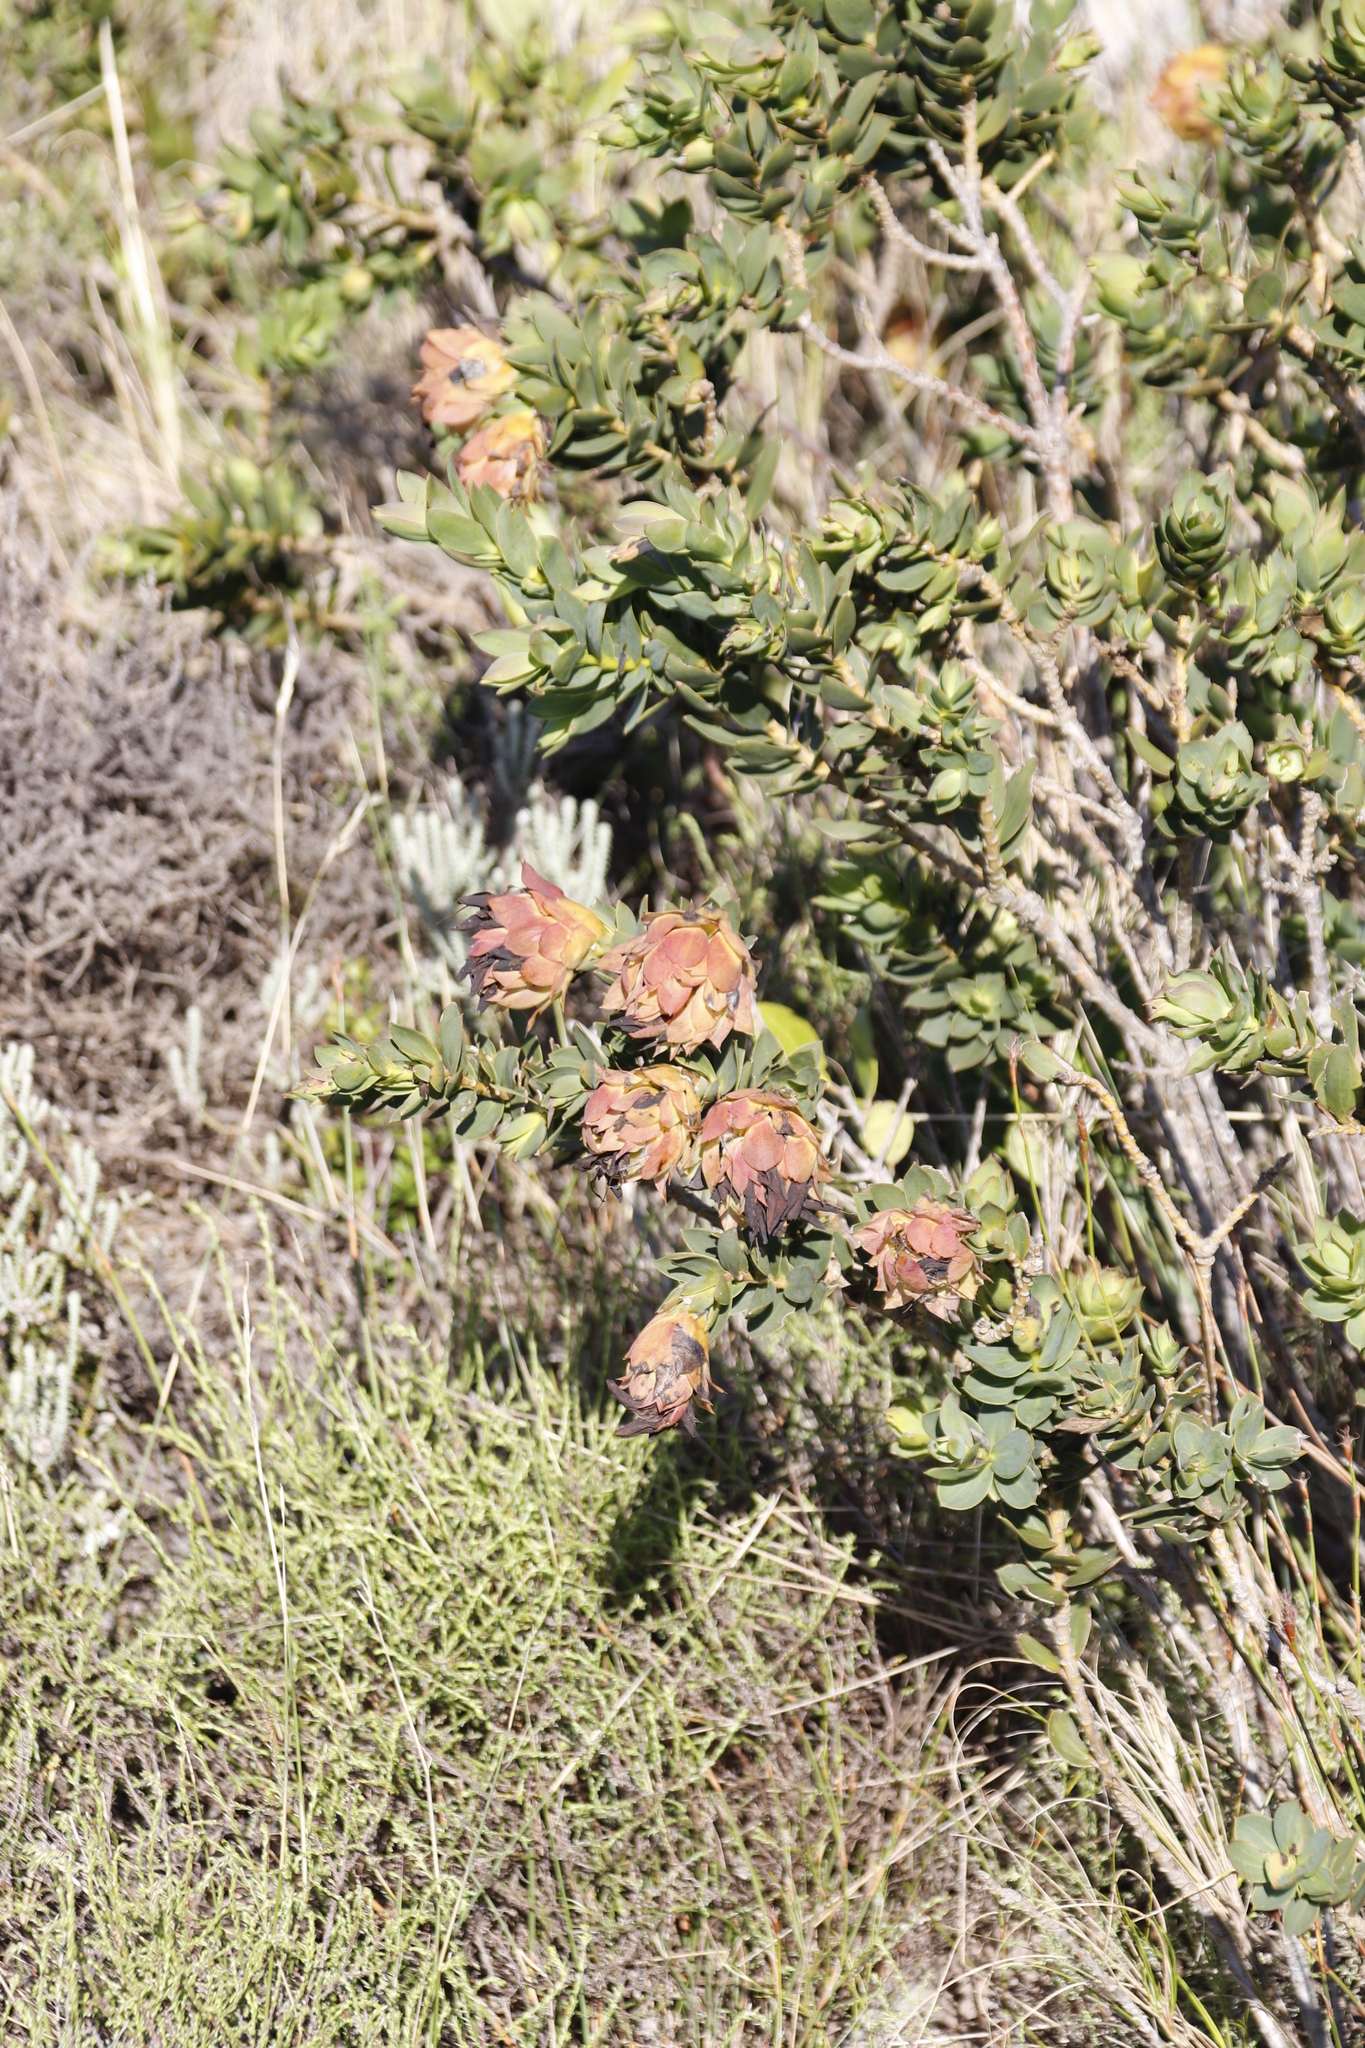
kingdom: Plantae
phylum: Tracheophyta
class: Magnoliopsida
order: Fabales
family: Fabaceae
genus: Liparia
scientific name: Liparia splendens
